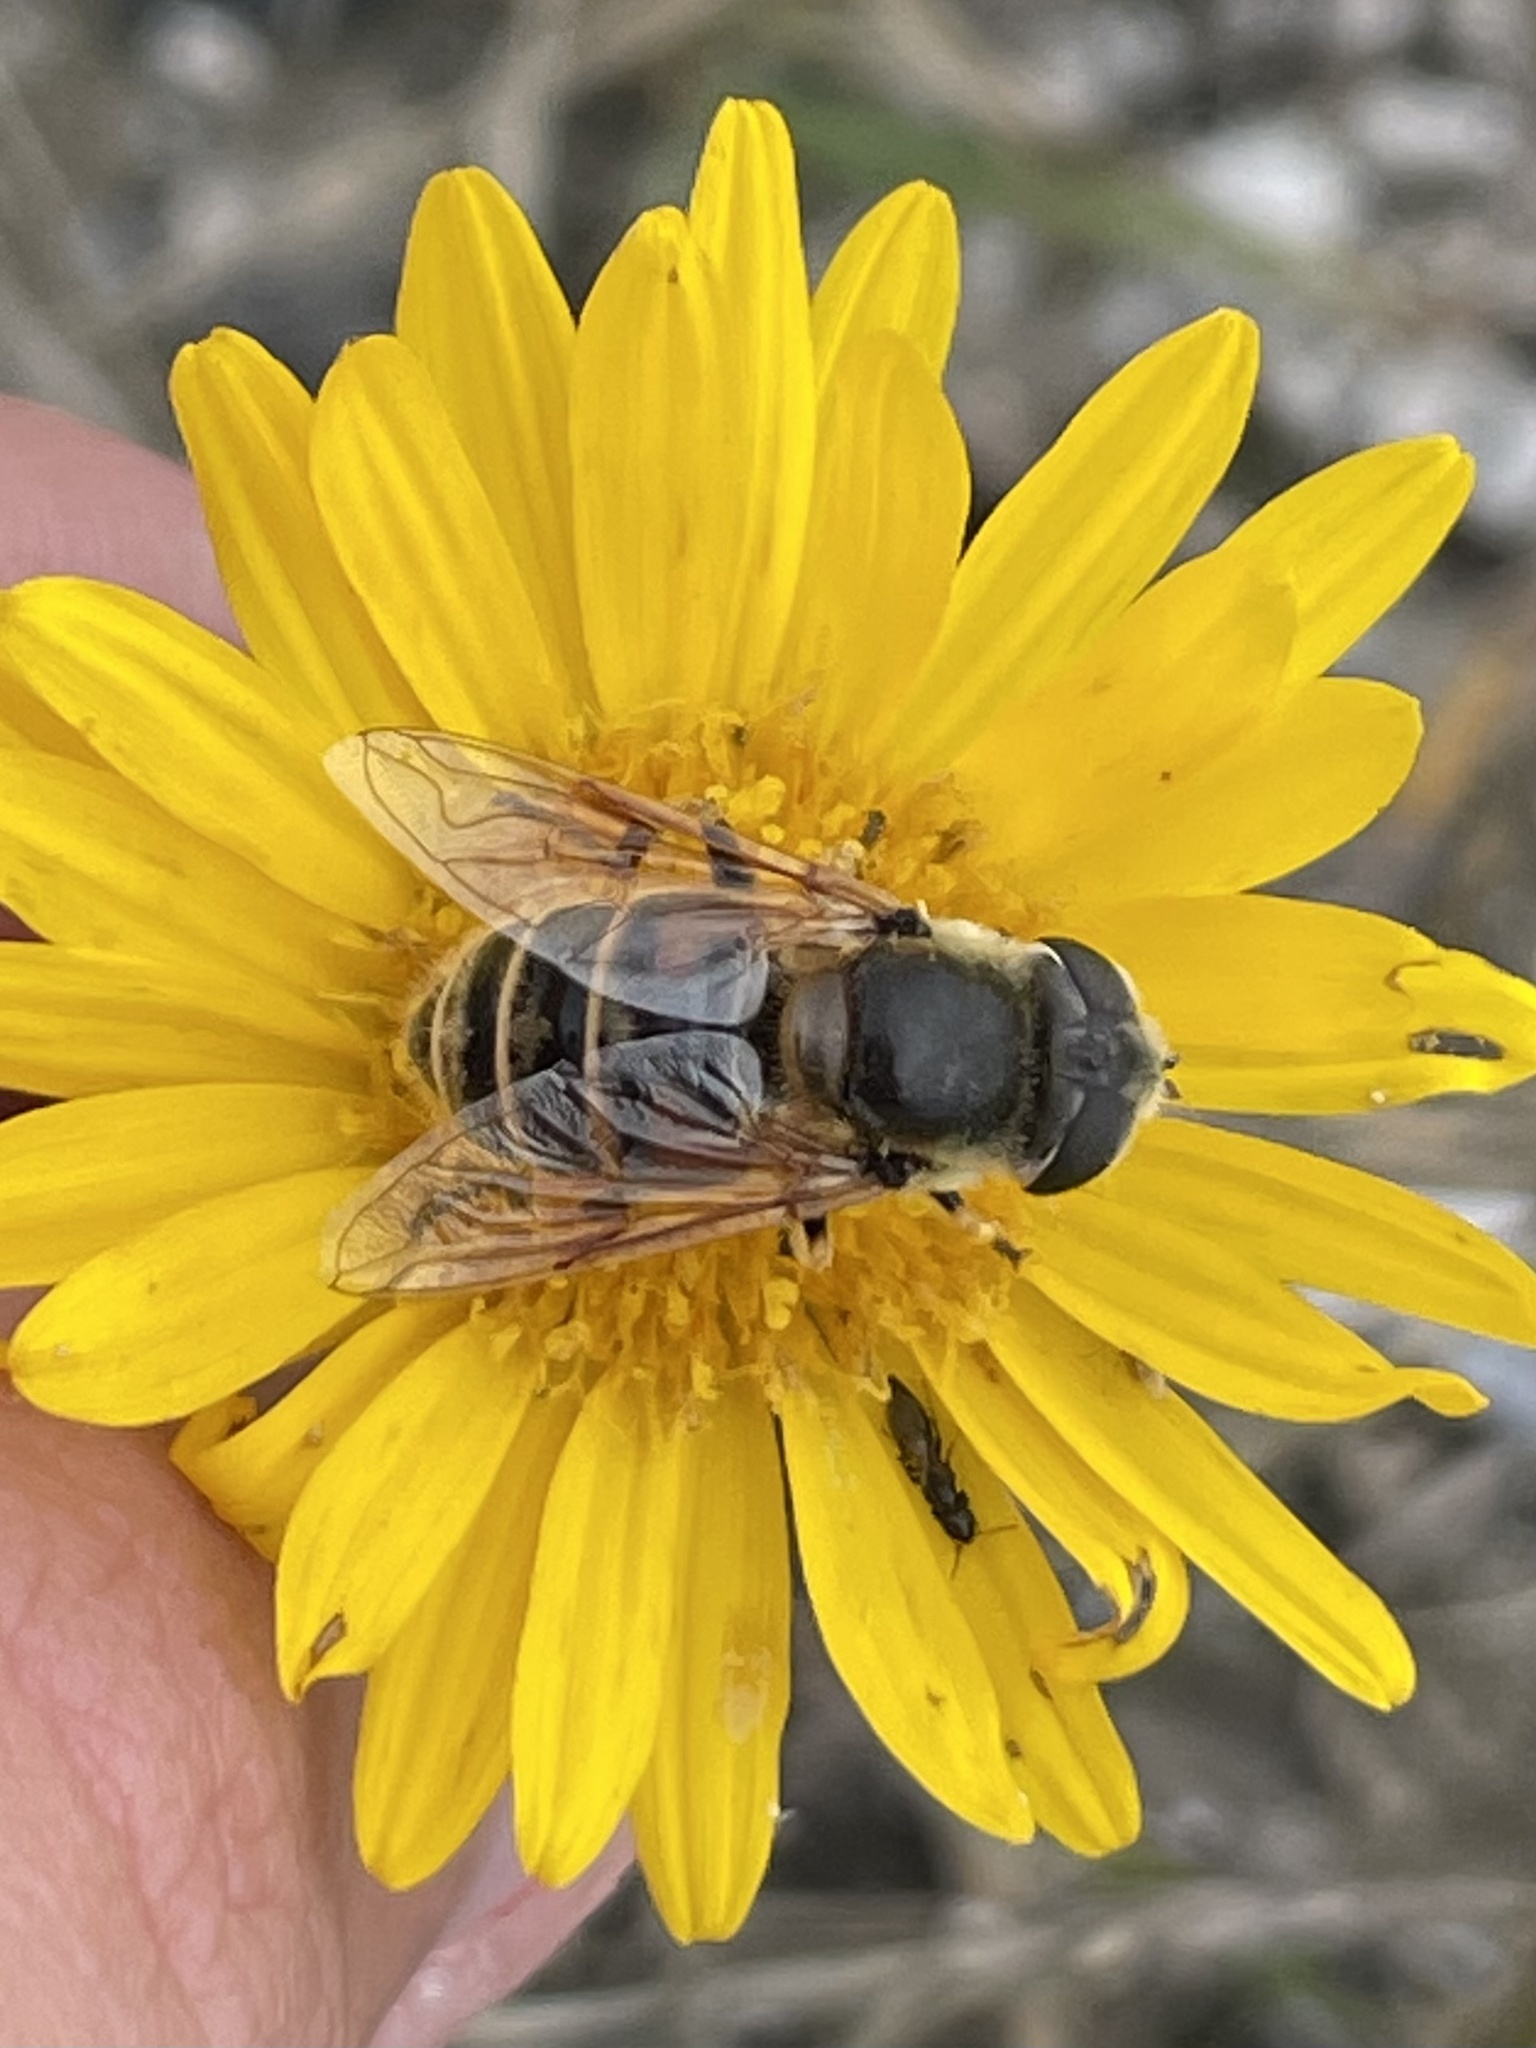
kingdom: Animalia
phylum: Arthropoda
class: Insecta
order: Diptera
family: Syrphidae
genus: Eristalis
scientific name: Eristalis stipator
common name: Yellow-shouldered drone fly
